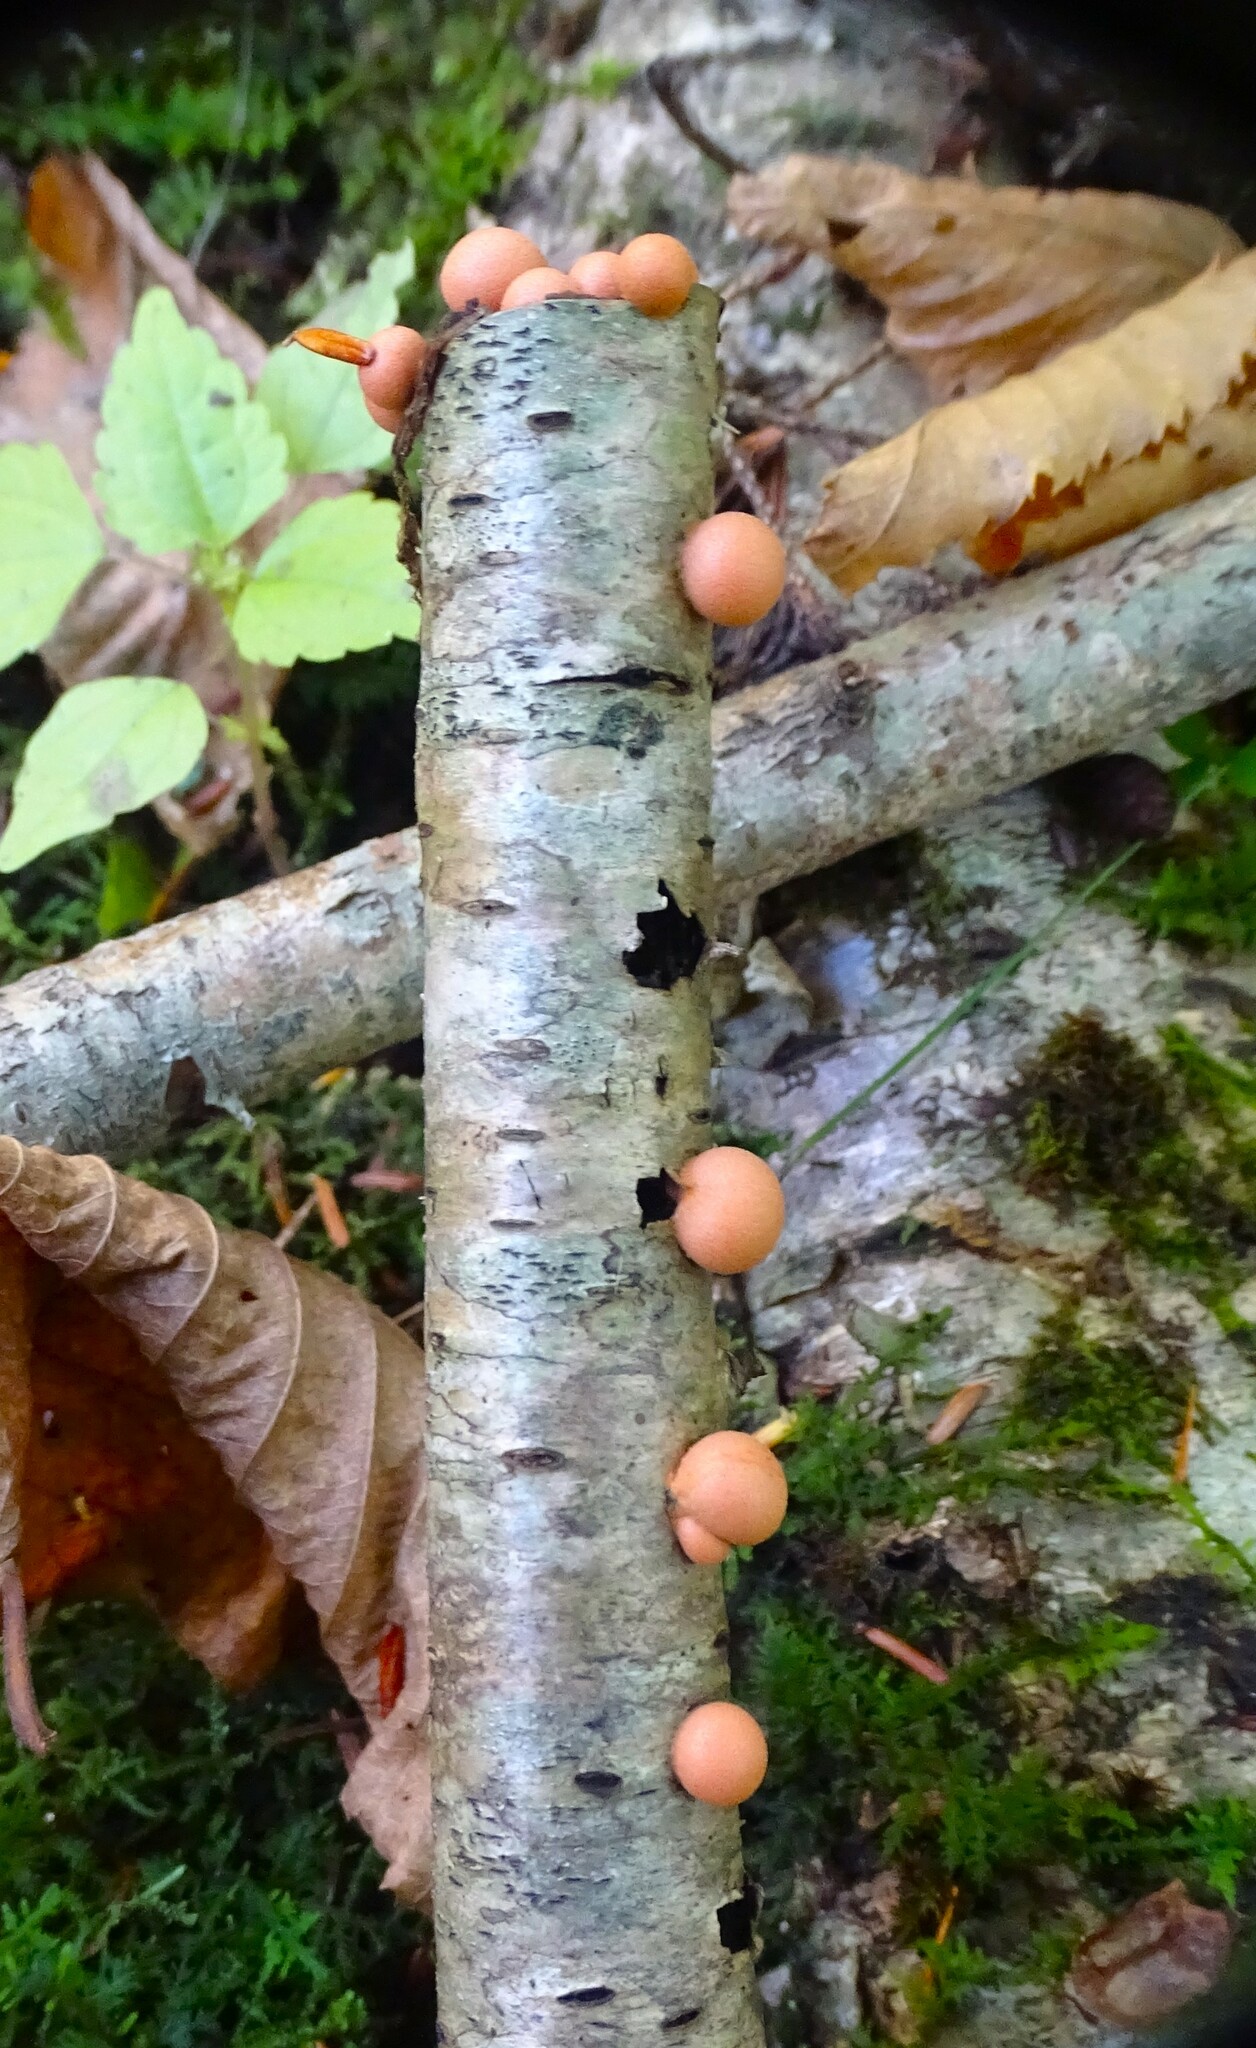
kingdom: Protozoa
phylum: Mycetozoa
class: Myxomycetes
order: Cribrariales
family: Tubiferaceae
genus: Lycogala
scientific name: Lycogala epidendrum
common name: Wolf's milk
